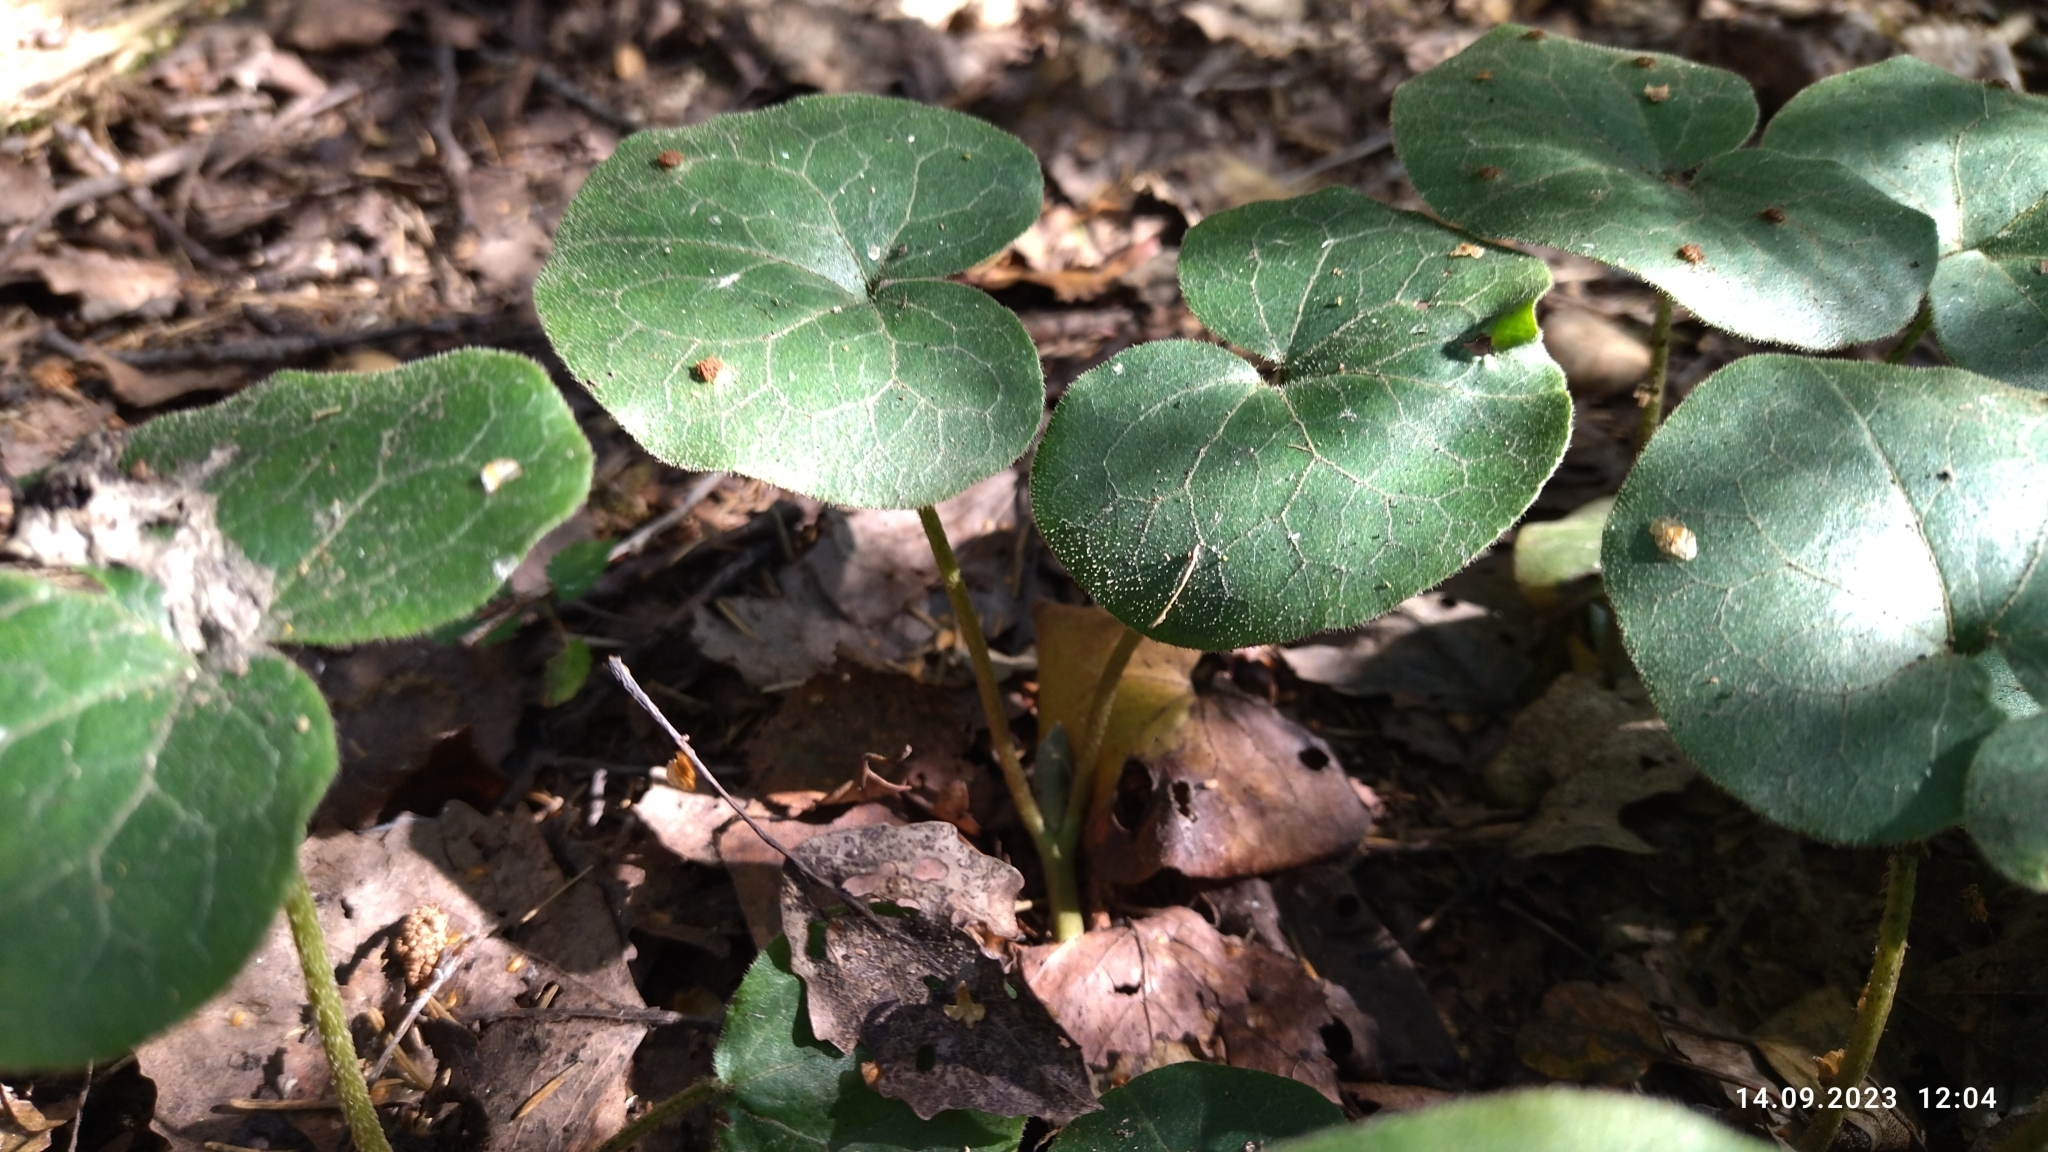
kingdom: Plantae
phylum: Tracheophyta
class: Magnoliopsida
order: Piperales
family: Aristolochiaceae
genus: Asarum
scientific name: Asarum europaeum
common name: Asarabacca
